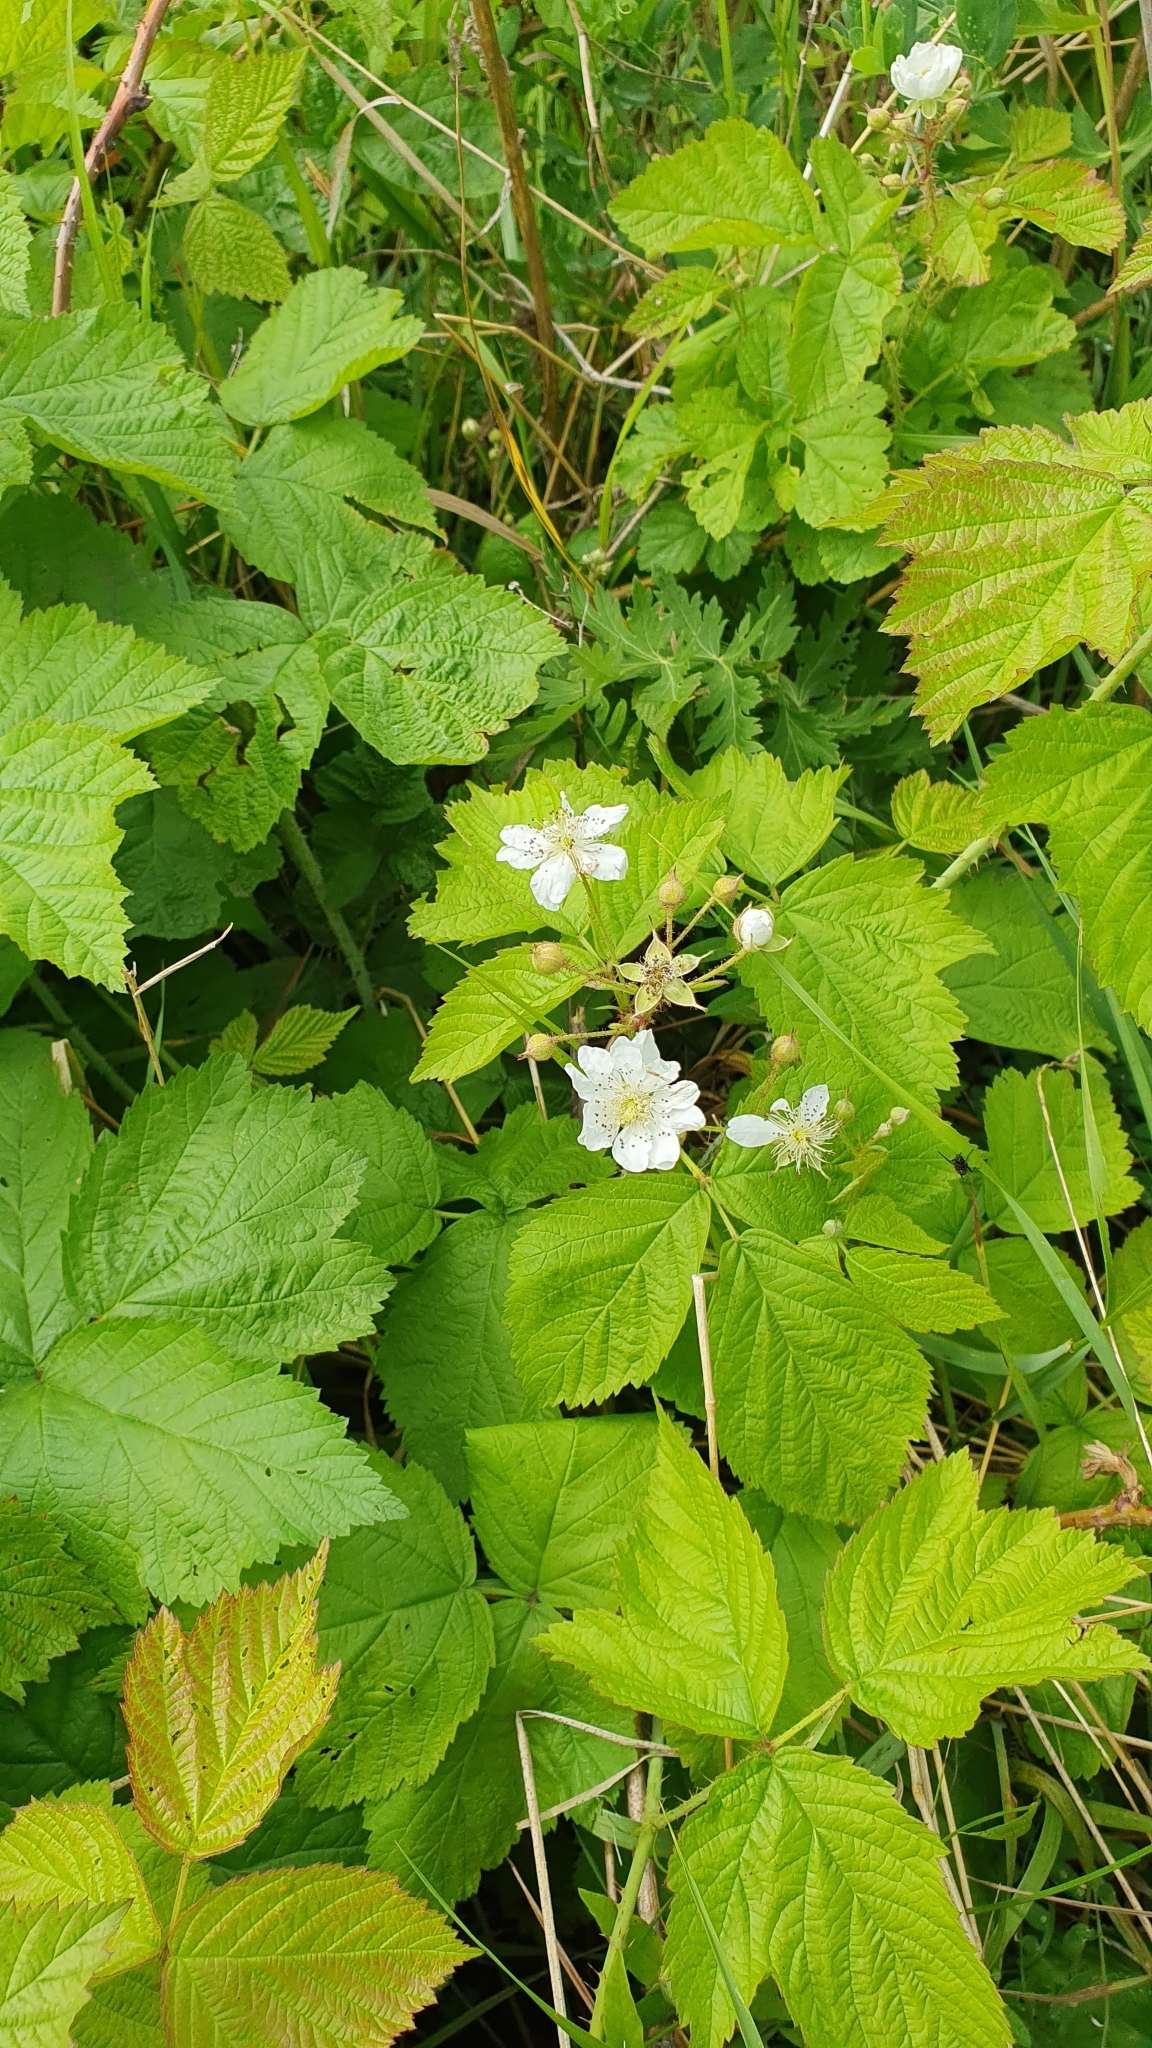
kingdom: Plantae
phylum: Tracheophyta
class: Magnoliopsida
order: Rosales
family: Rosaceae
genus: Rubus
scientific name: Rubus caesius
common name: Dewberry
